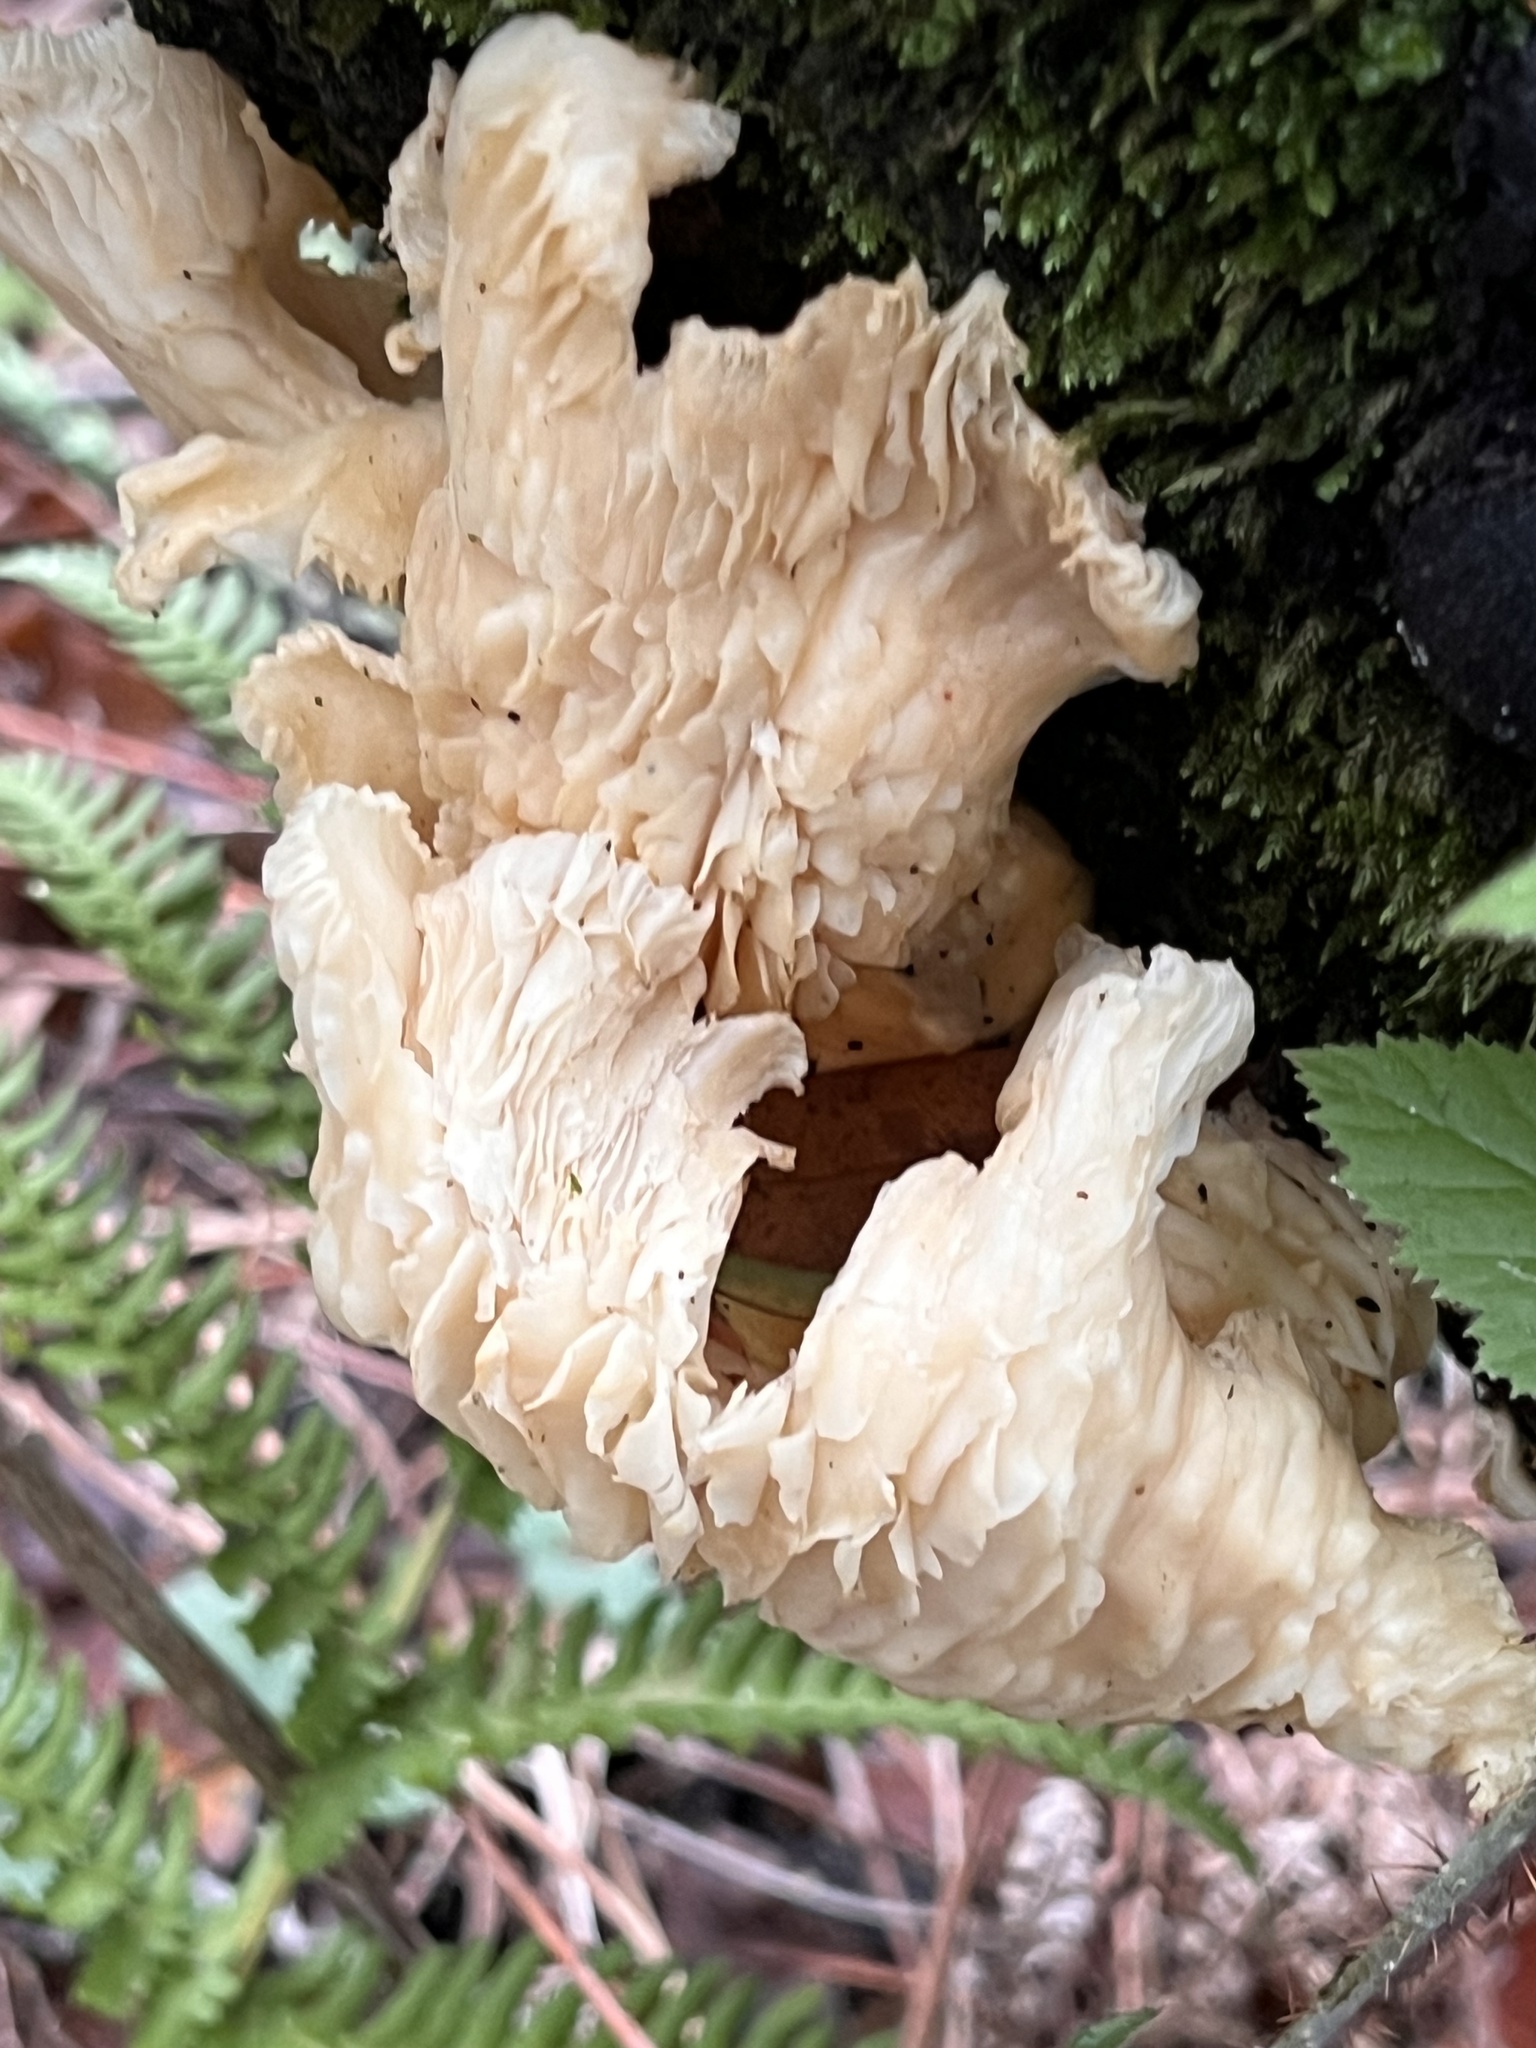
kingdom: Fungi
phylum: Basidiomycota
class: Agaricomycetes
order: Agaricales
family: Pleurotaceae
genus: Pleurotus
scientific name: Pleurotus ostreatus
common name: Oyster mushroom
